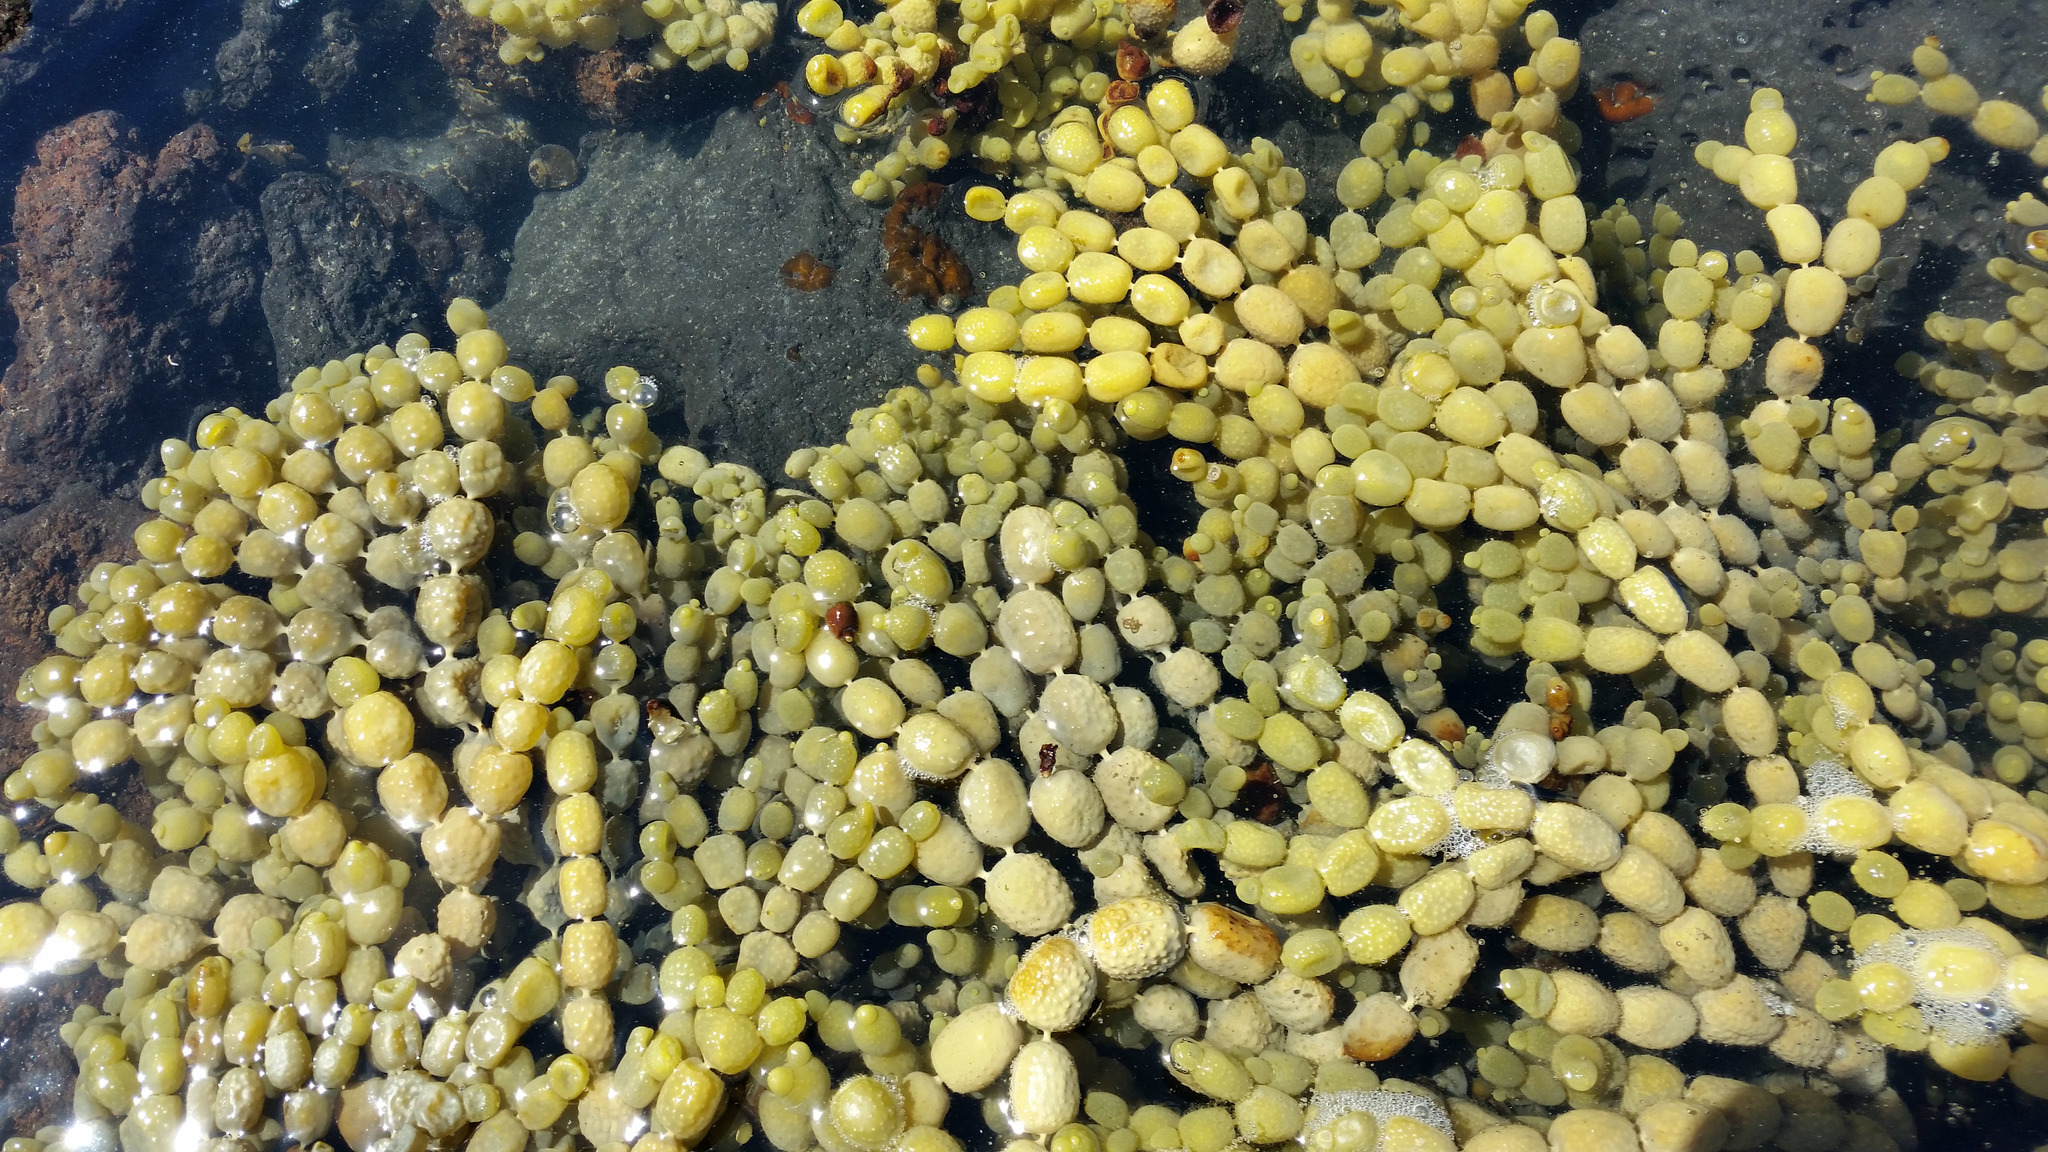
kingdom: Chromista
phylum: Ochrophyta
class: Phaeophyceae
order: Fucales
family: Hormosiraceae
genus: Hormosira
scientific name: Hormosira banksii
